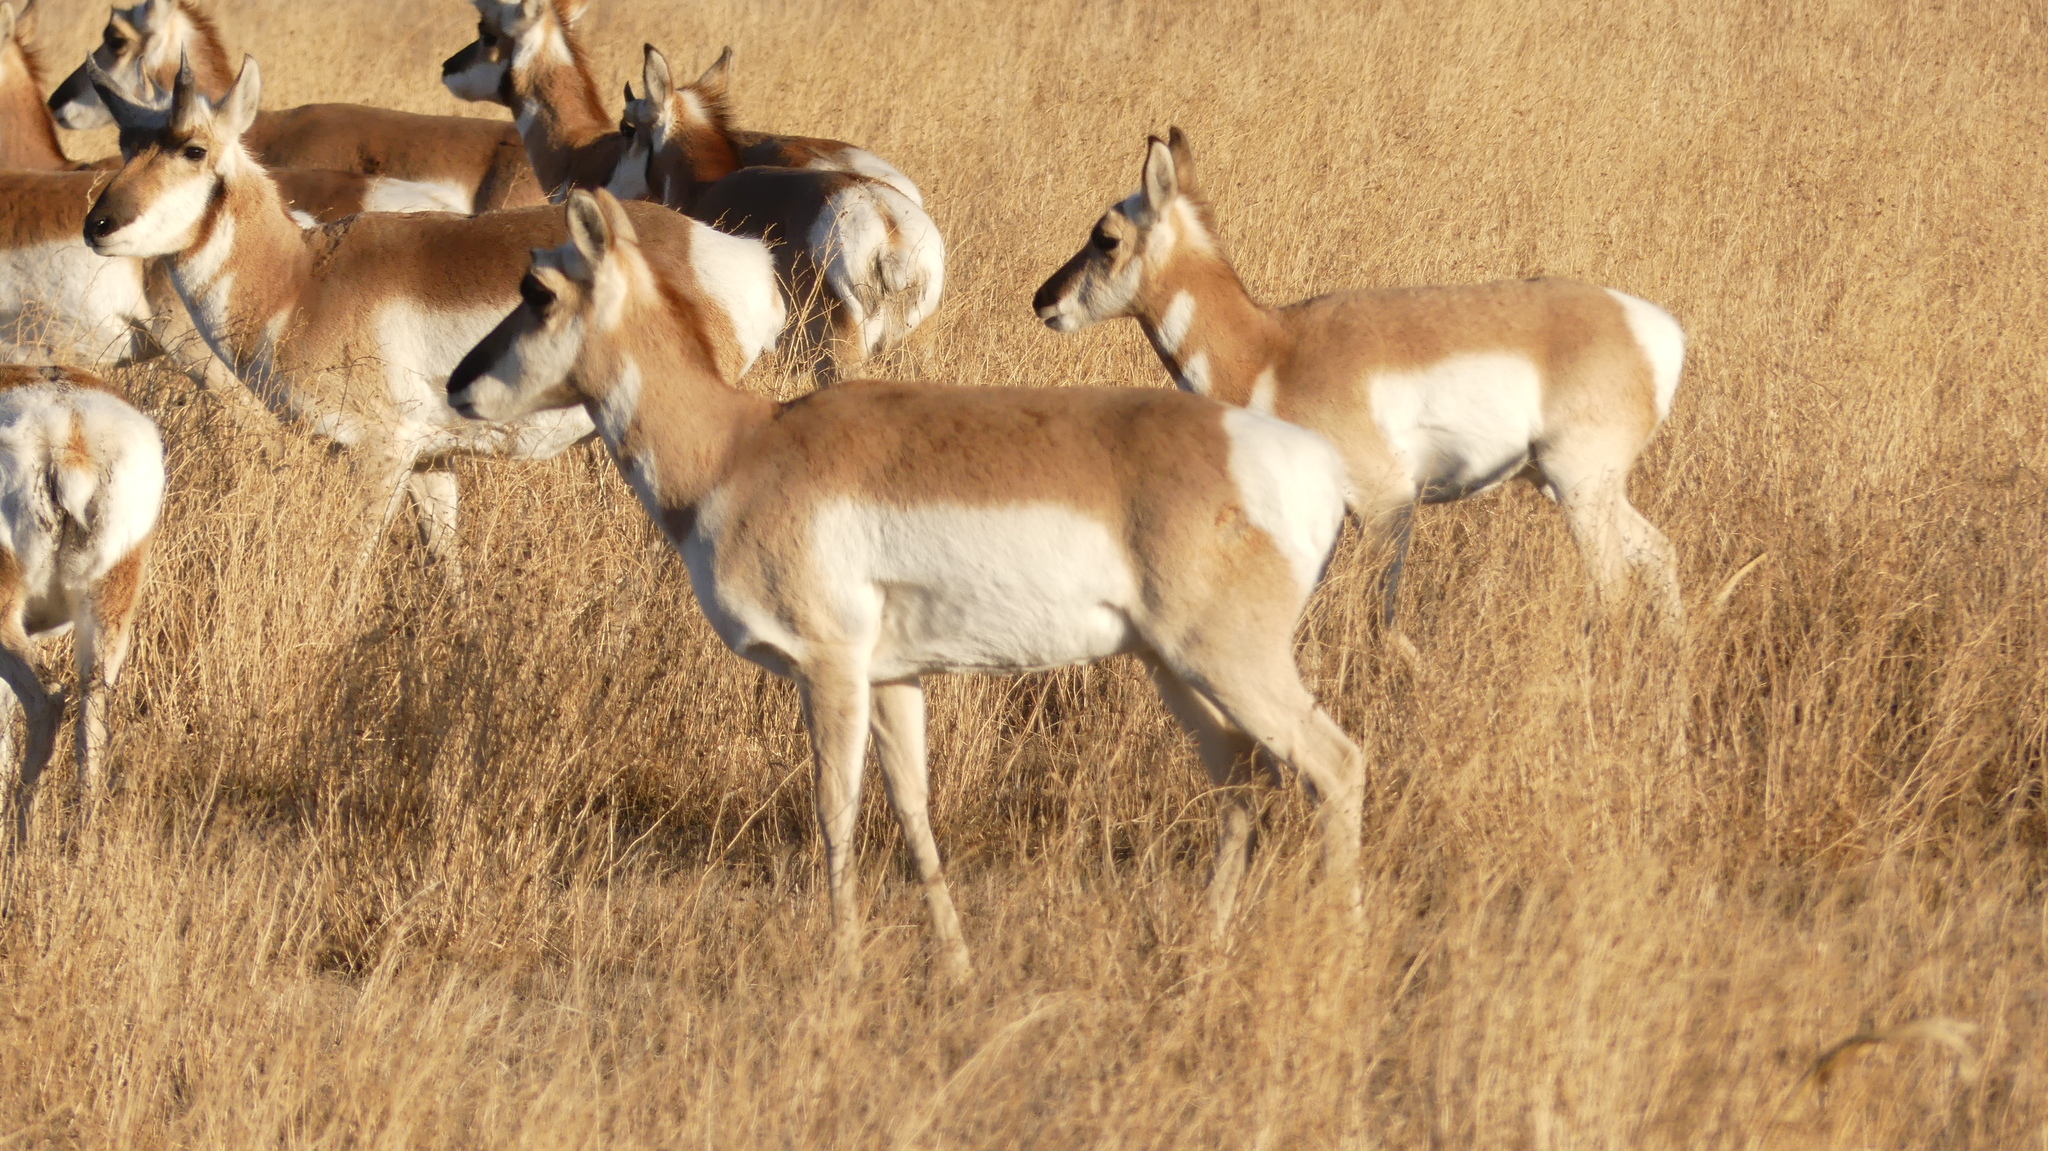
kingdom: Animalia
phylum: Chordata
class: Mammalia
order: Artiodactyla
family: Antilocapridae
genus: Antilocapra
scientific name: Antilocapra americana
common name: Pronghorn
